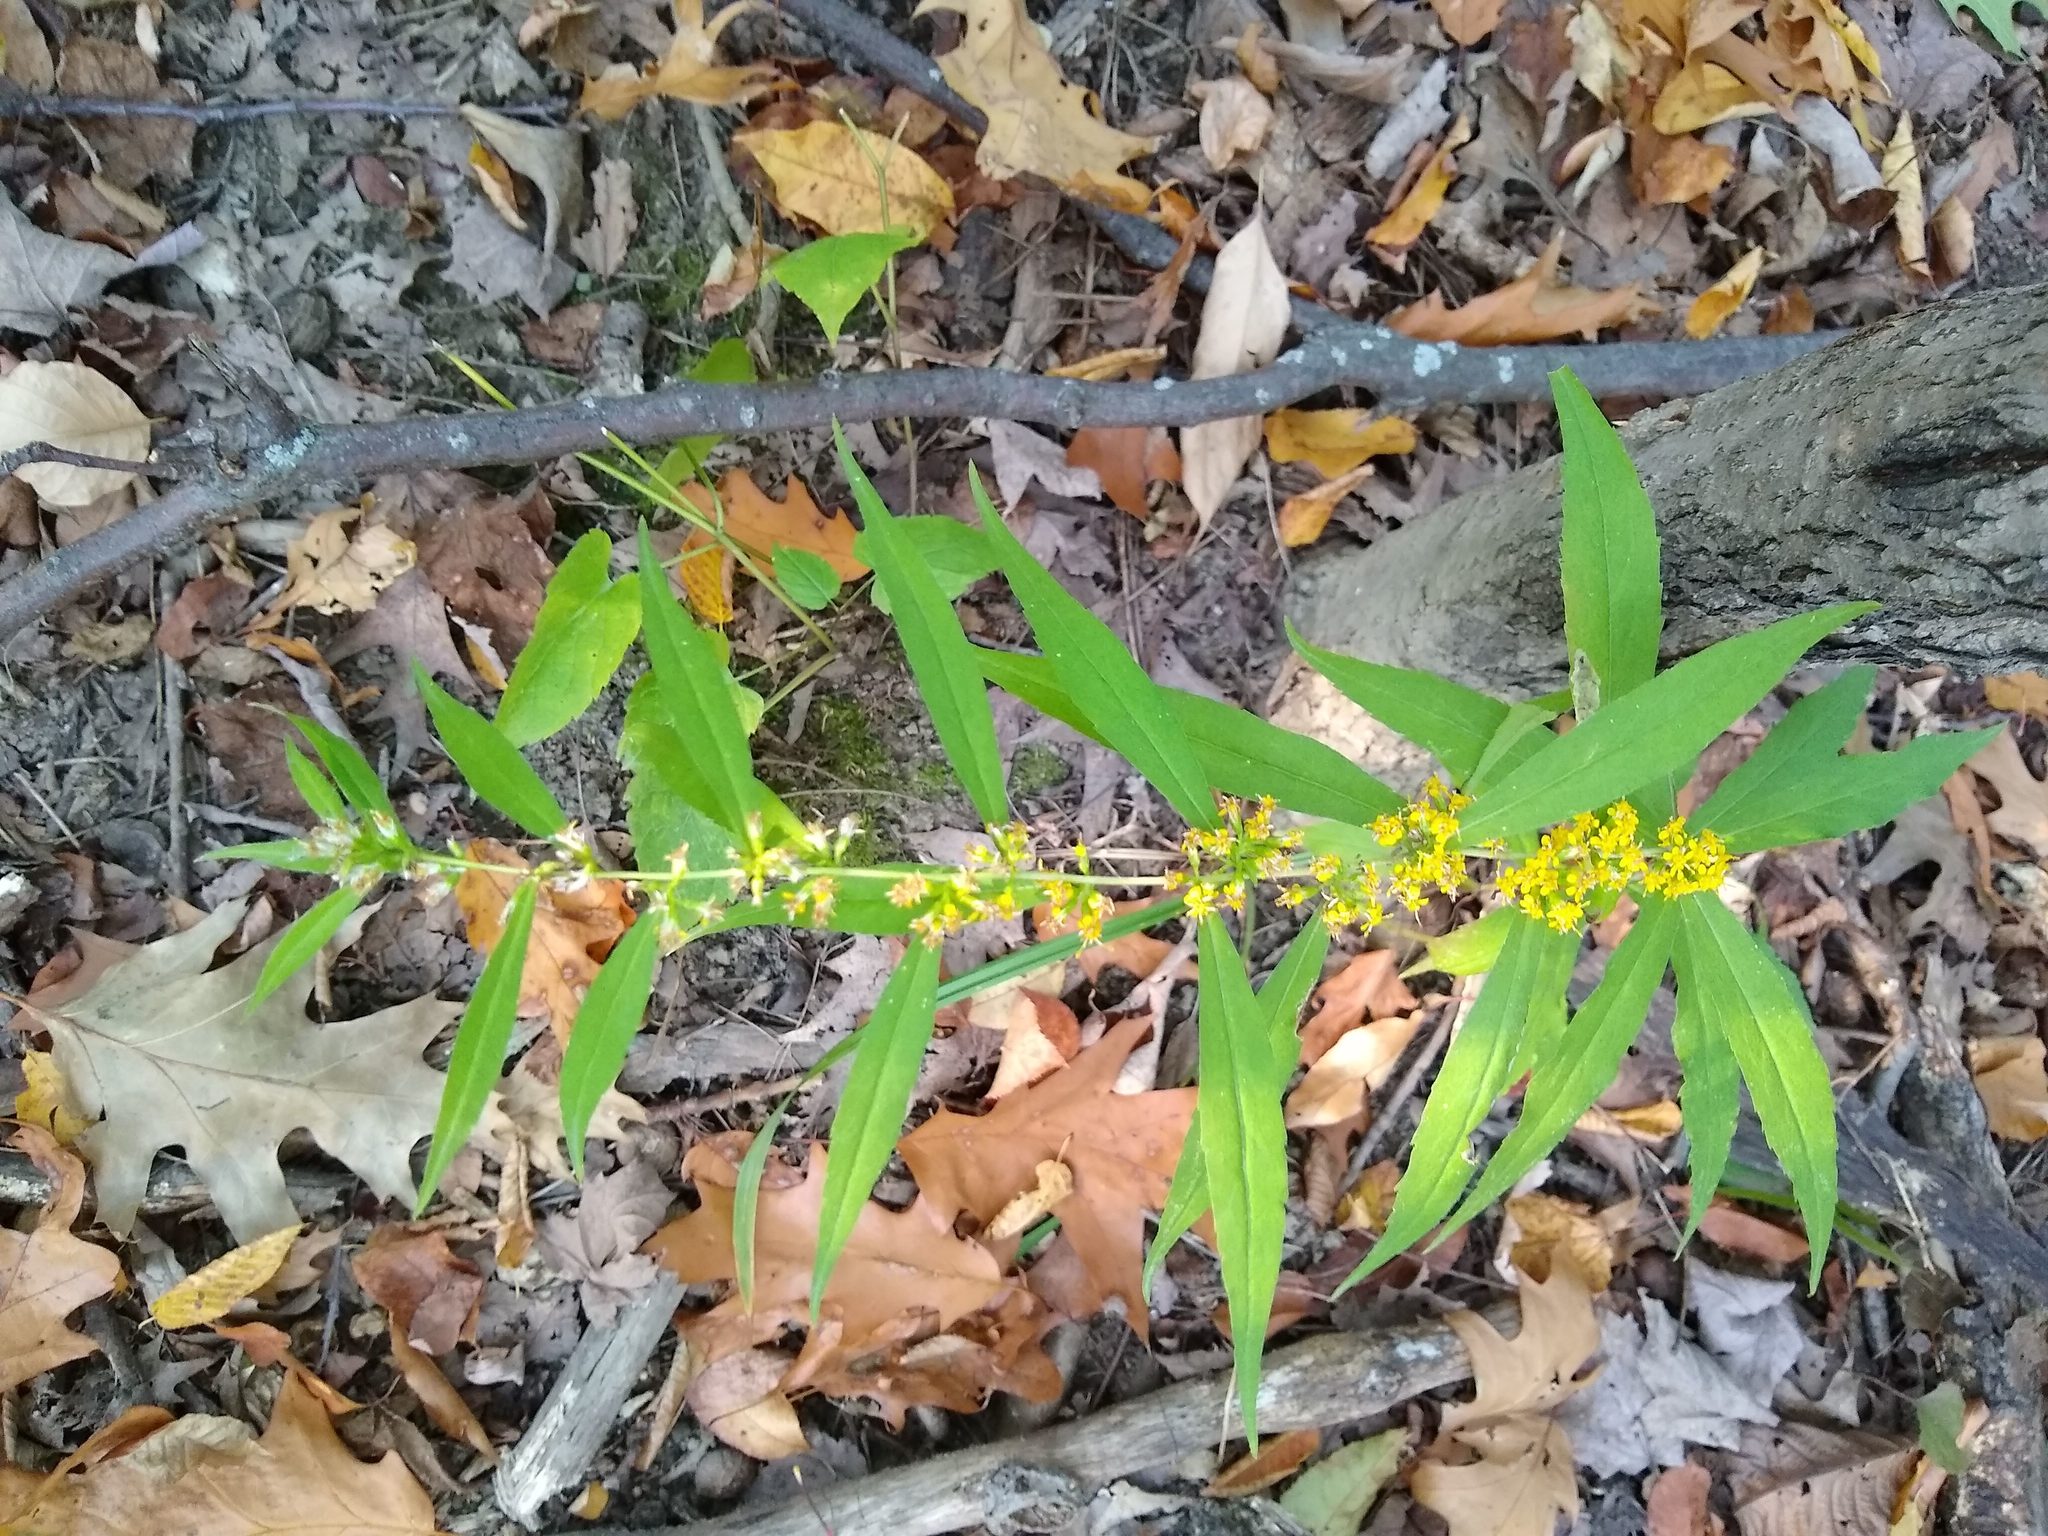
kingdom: Plantae
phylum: Tracheophyta
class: Magnoliopsida
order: Asterales
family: Asteraceae
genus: Solidago
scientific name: Solidago caesia
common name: Woodland goldenrod
